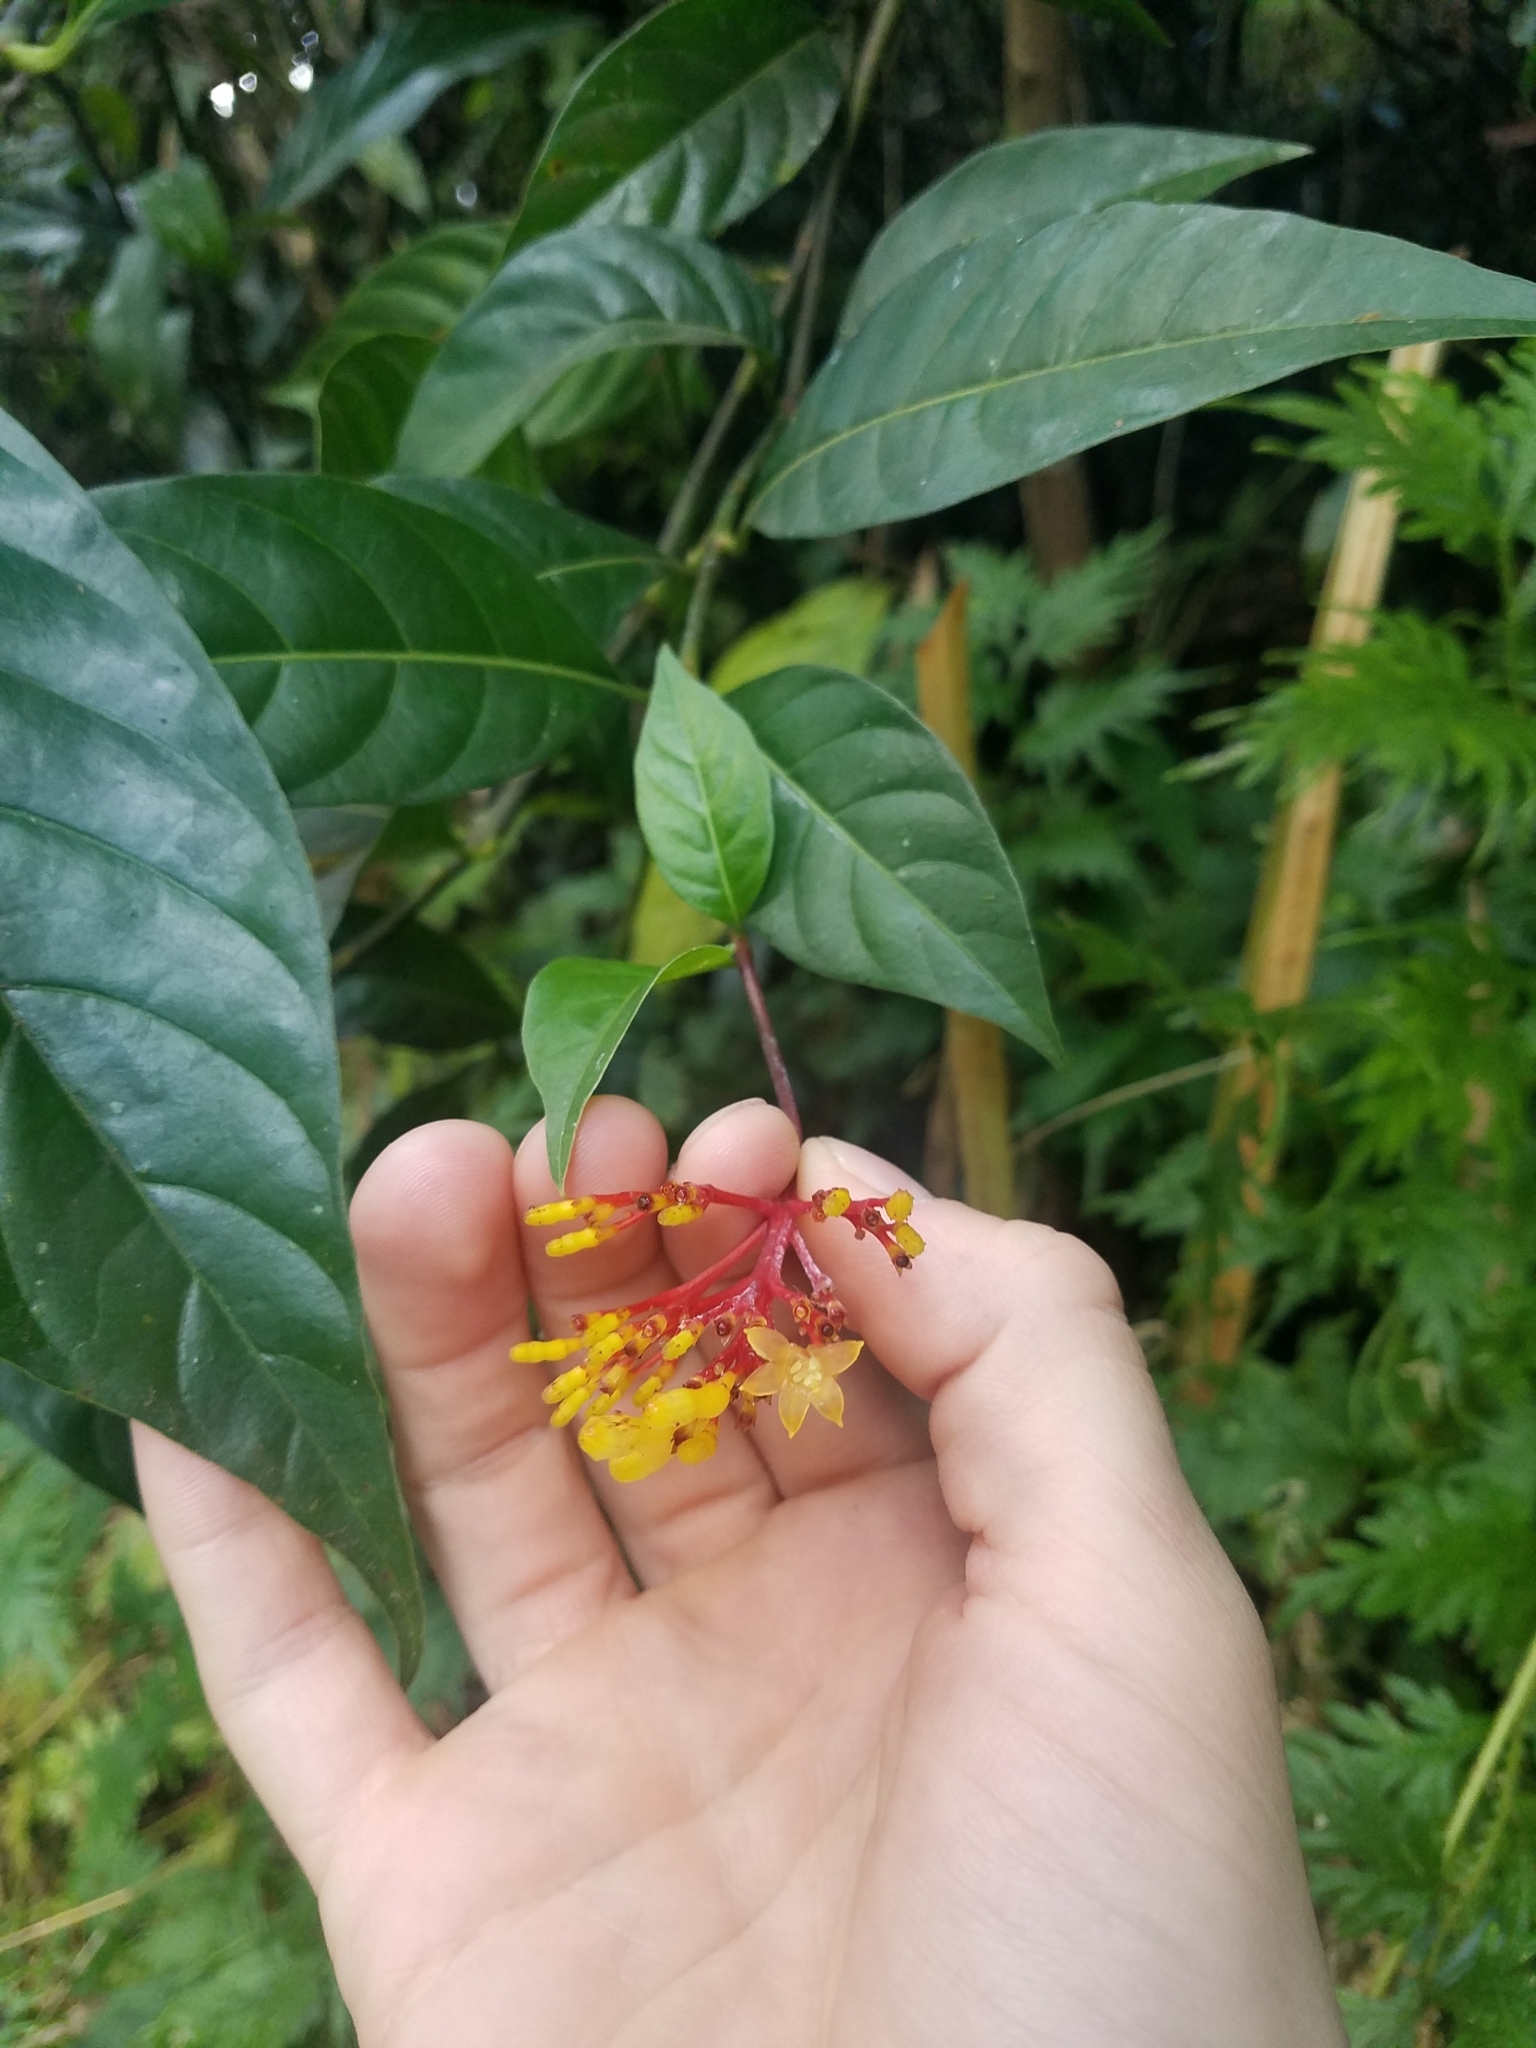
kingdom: Plantae
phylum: Tracheophyta
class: Magnoliopsida
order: Gentianales
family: Rubiaceae
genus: Palicourea
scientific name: Palicourea croceoides
